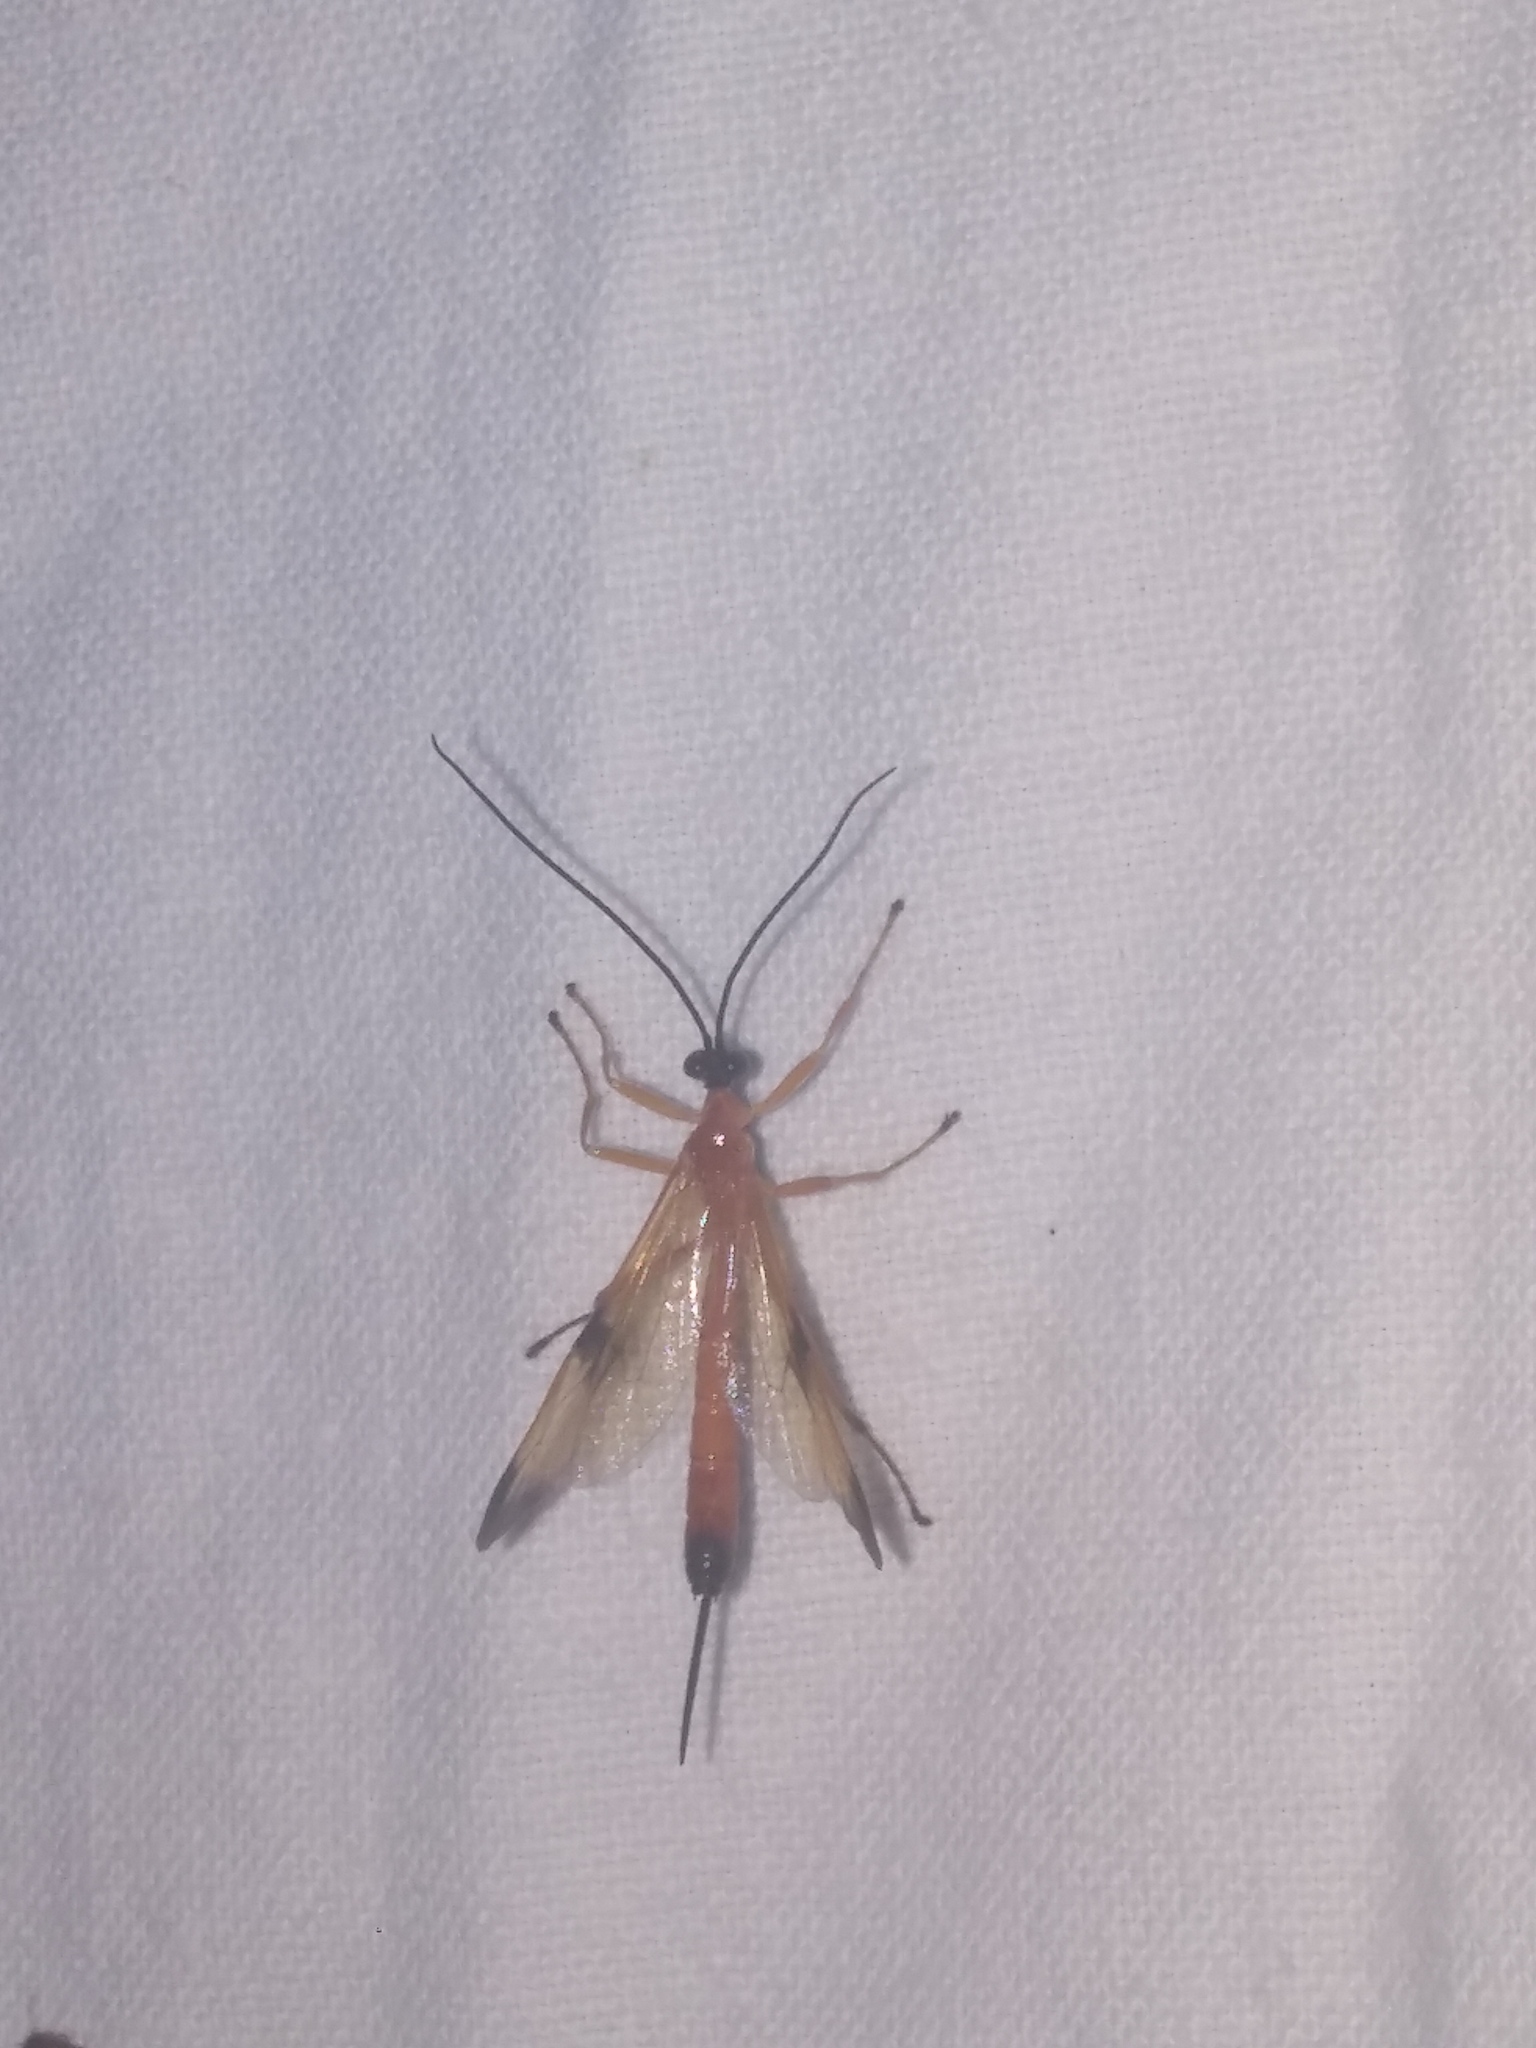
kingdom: Animalia
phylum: Arthropoda
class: Insecta
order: Hymenoptera
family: Ichneumonidae
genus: Acrotaphus
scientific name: Acrotaphus wiltii
